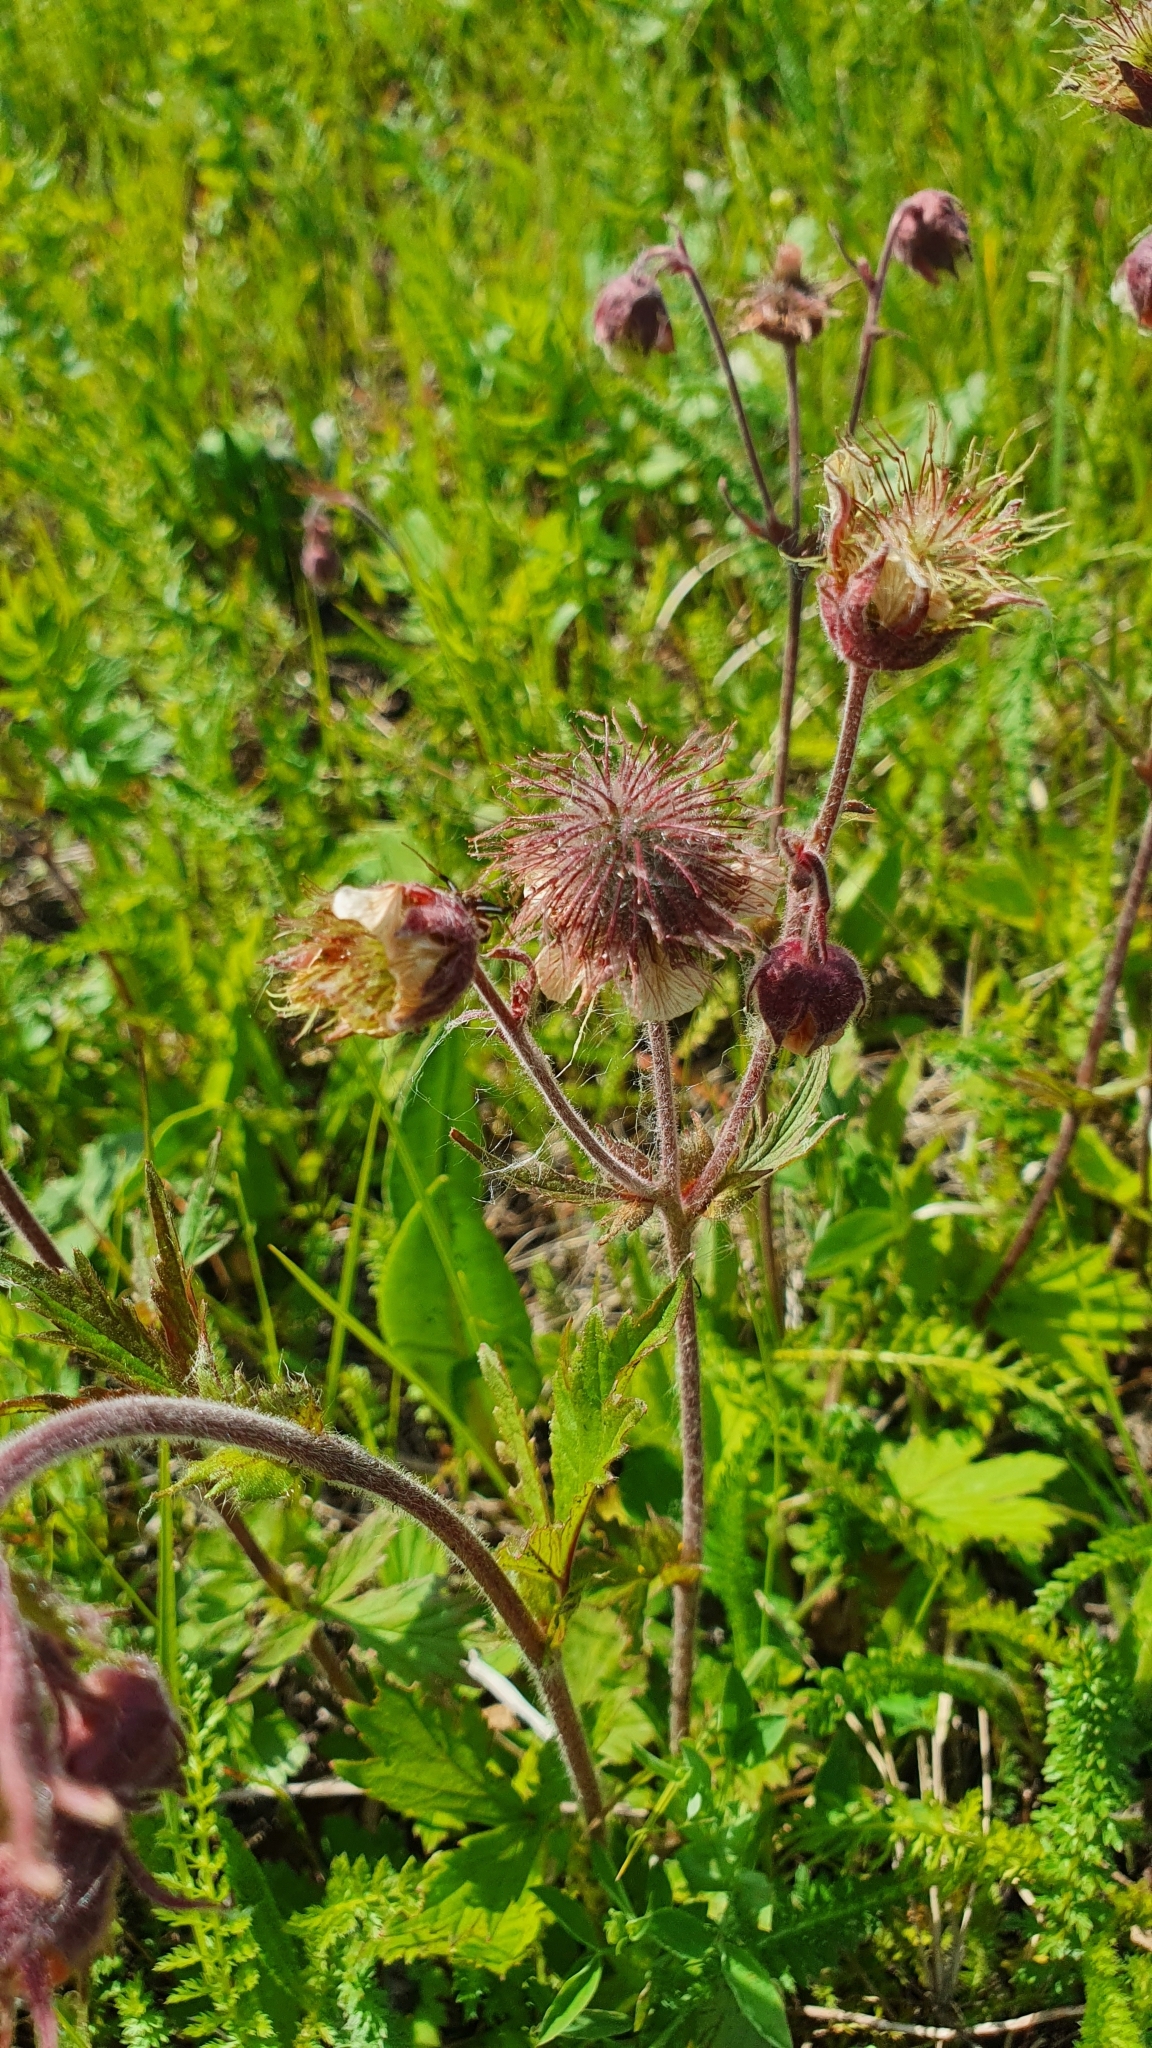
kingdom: Plantae
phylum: Tracheophyta
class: Magnoliopsida
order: Rosales
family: Rosaceae
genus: Geum
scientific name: Geum rivale
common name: Water avens
